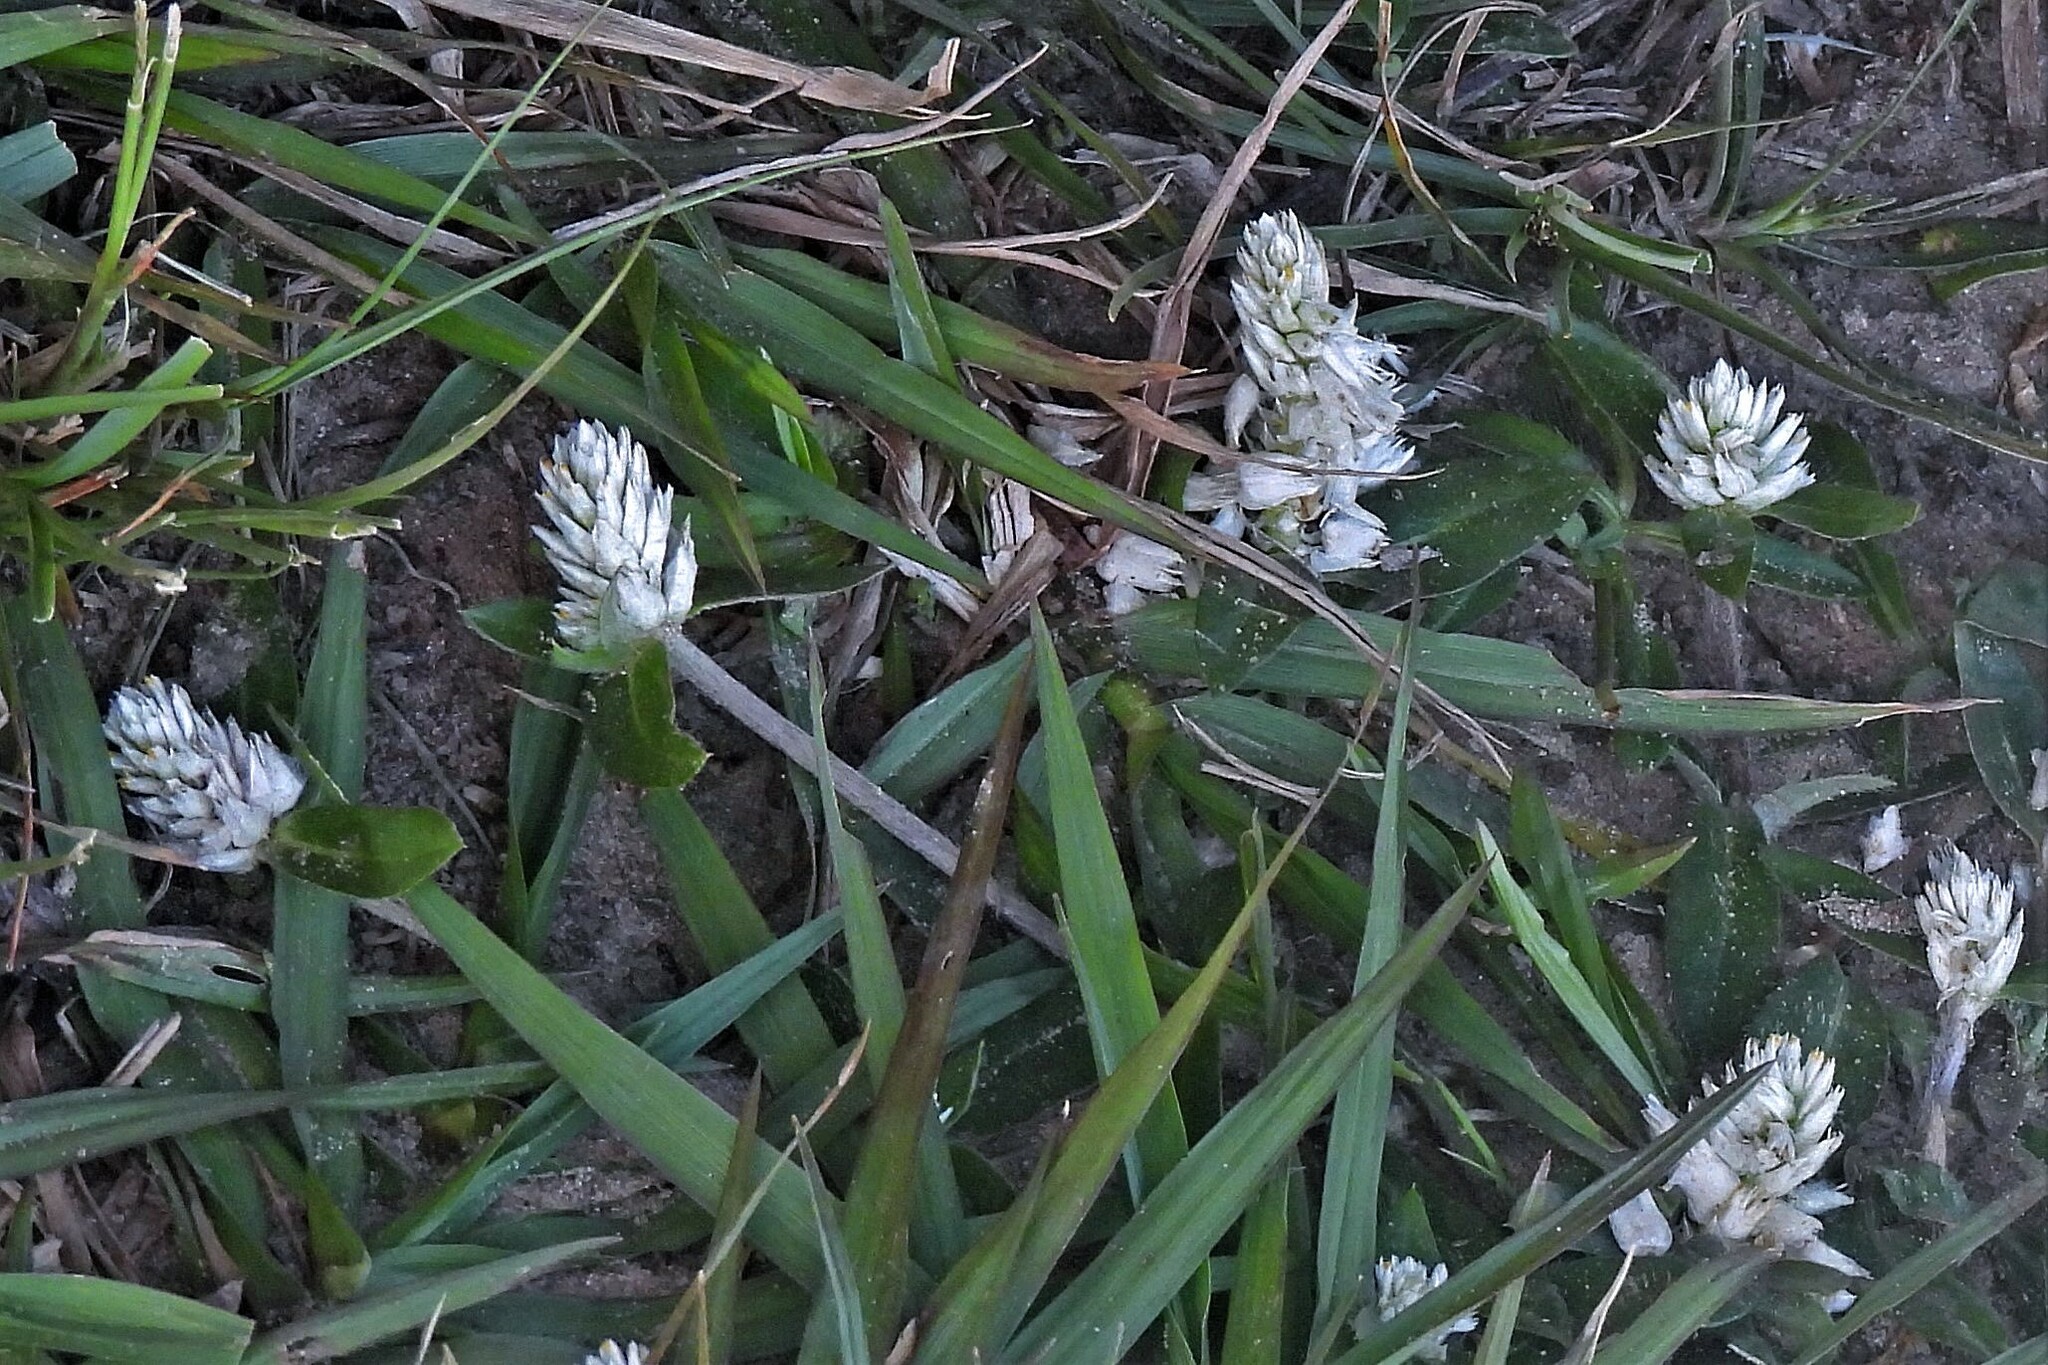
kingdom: Plantae
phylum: Tracheophyta
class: Magnoliopsida
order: Caryophyllales
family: Amaranthaceae
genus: Gomphrena
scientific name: Gomphrena celosioides
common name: Gomphrena-weed
